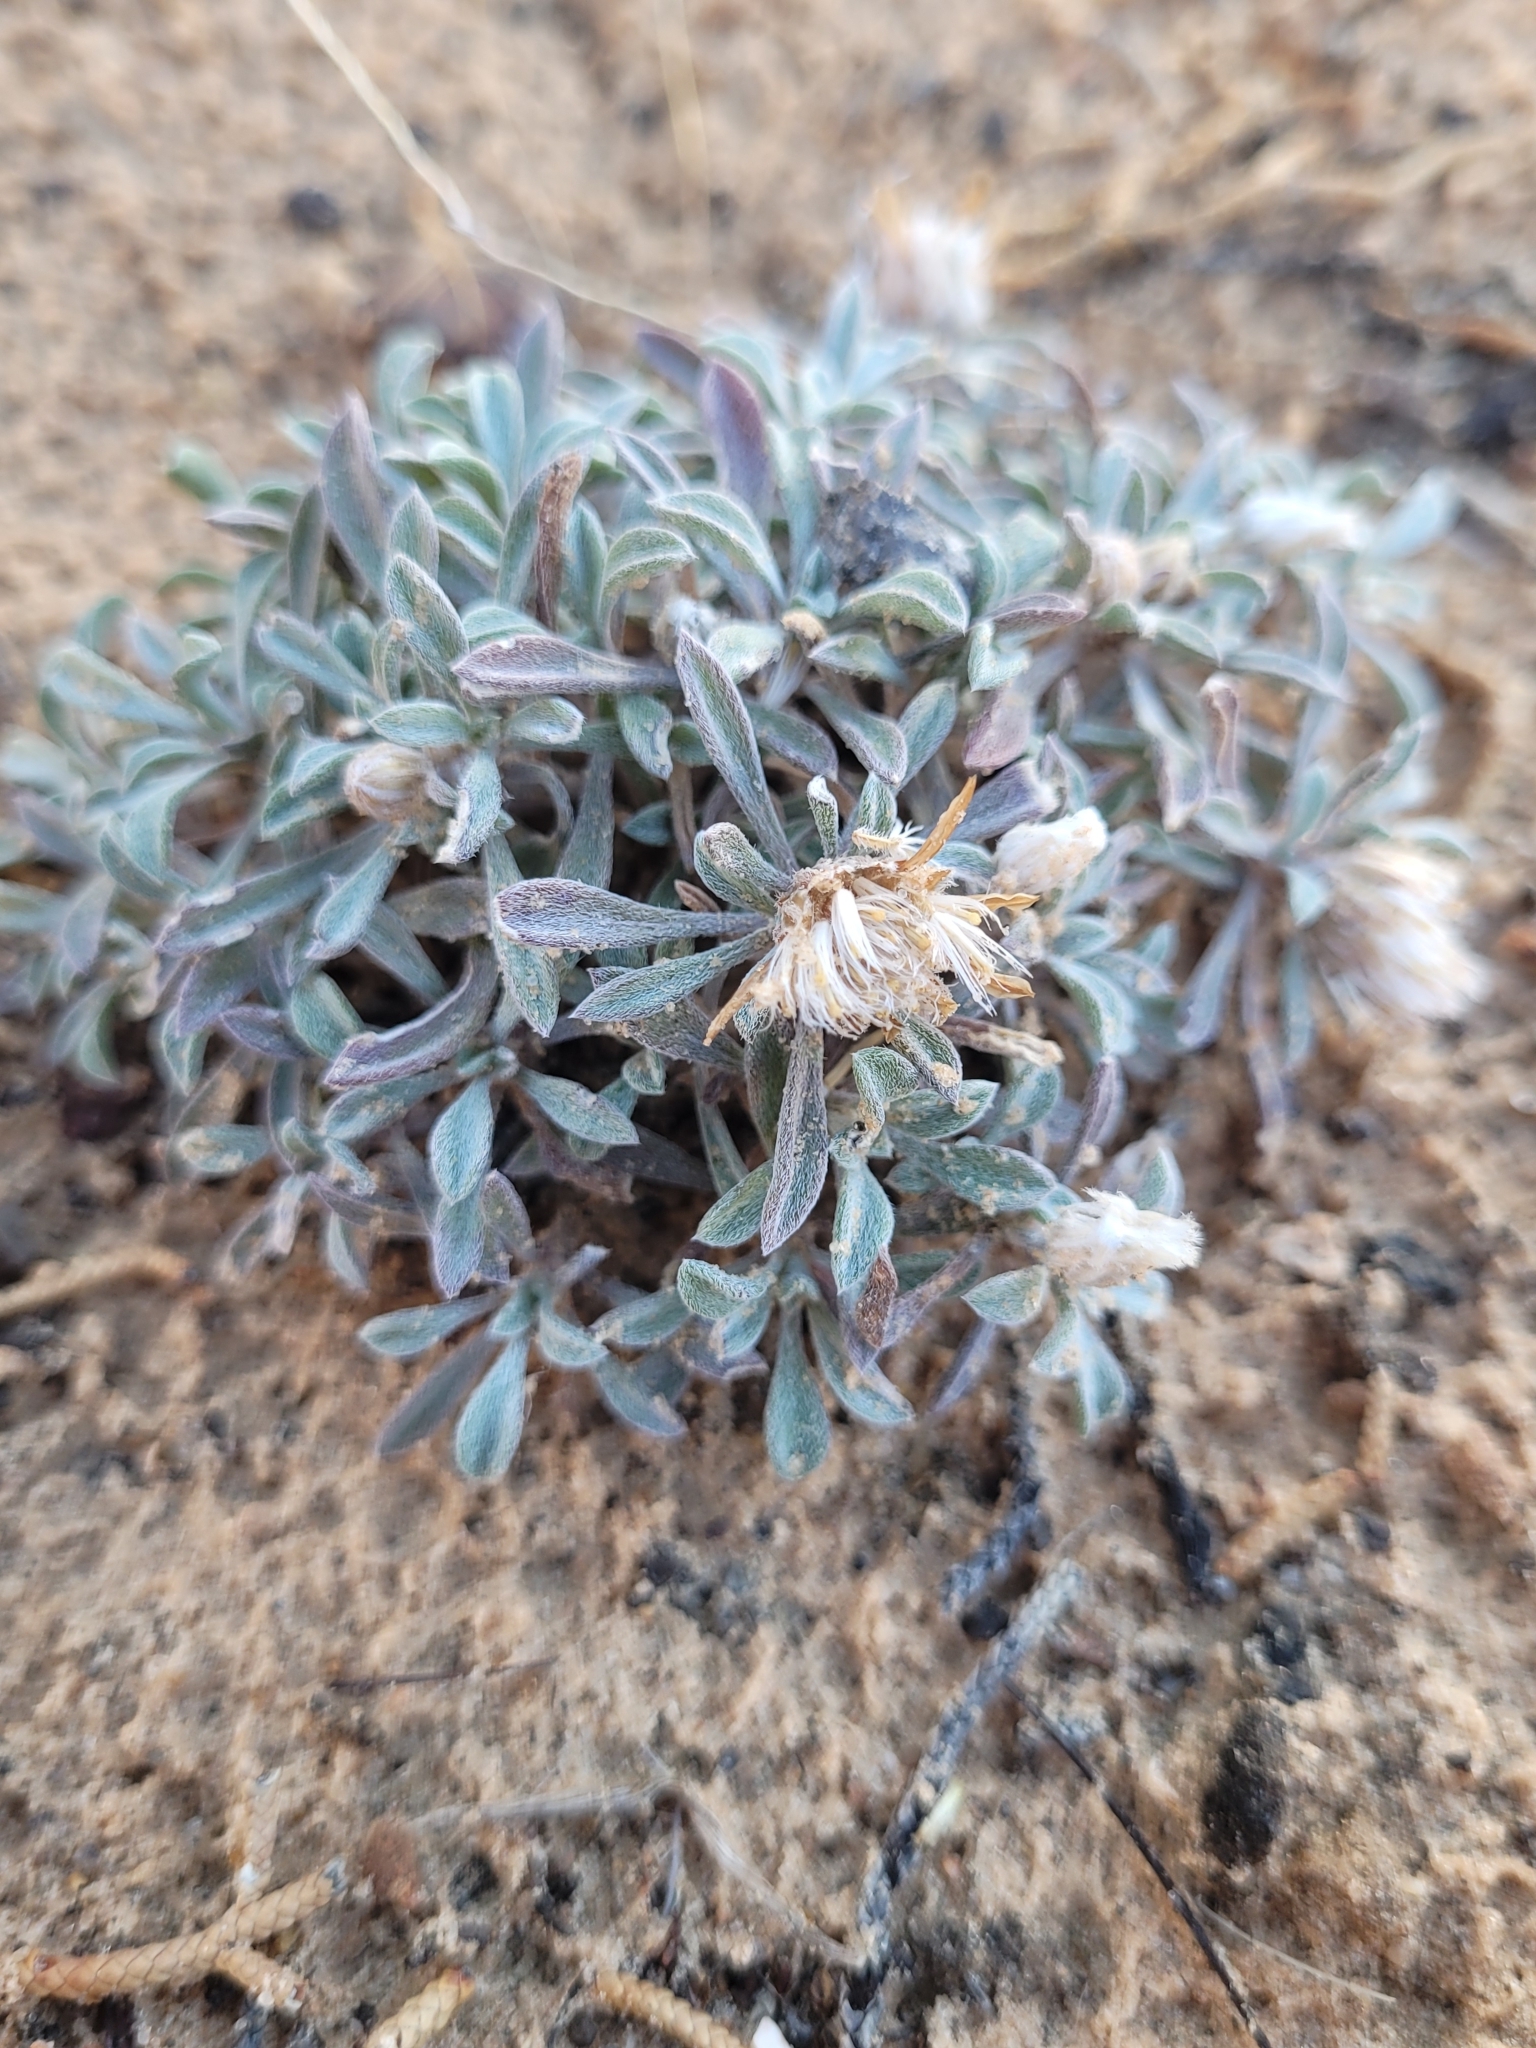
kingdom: Plantae
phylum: Tracheophyta
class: Magnoliopsida
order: Asterales
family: Asteraceae
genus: Townsendia
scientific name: Townsendia incana
